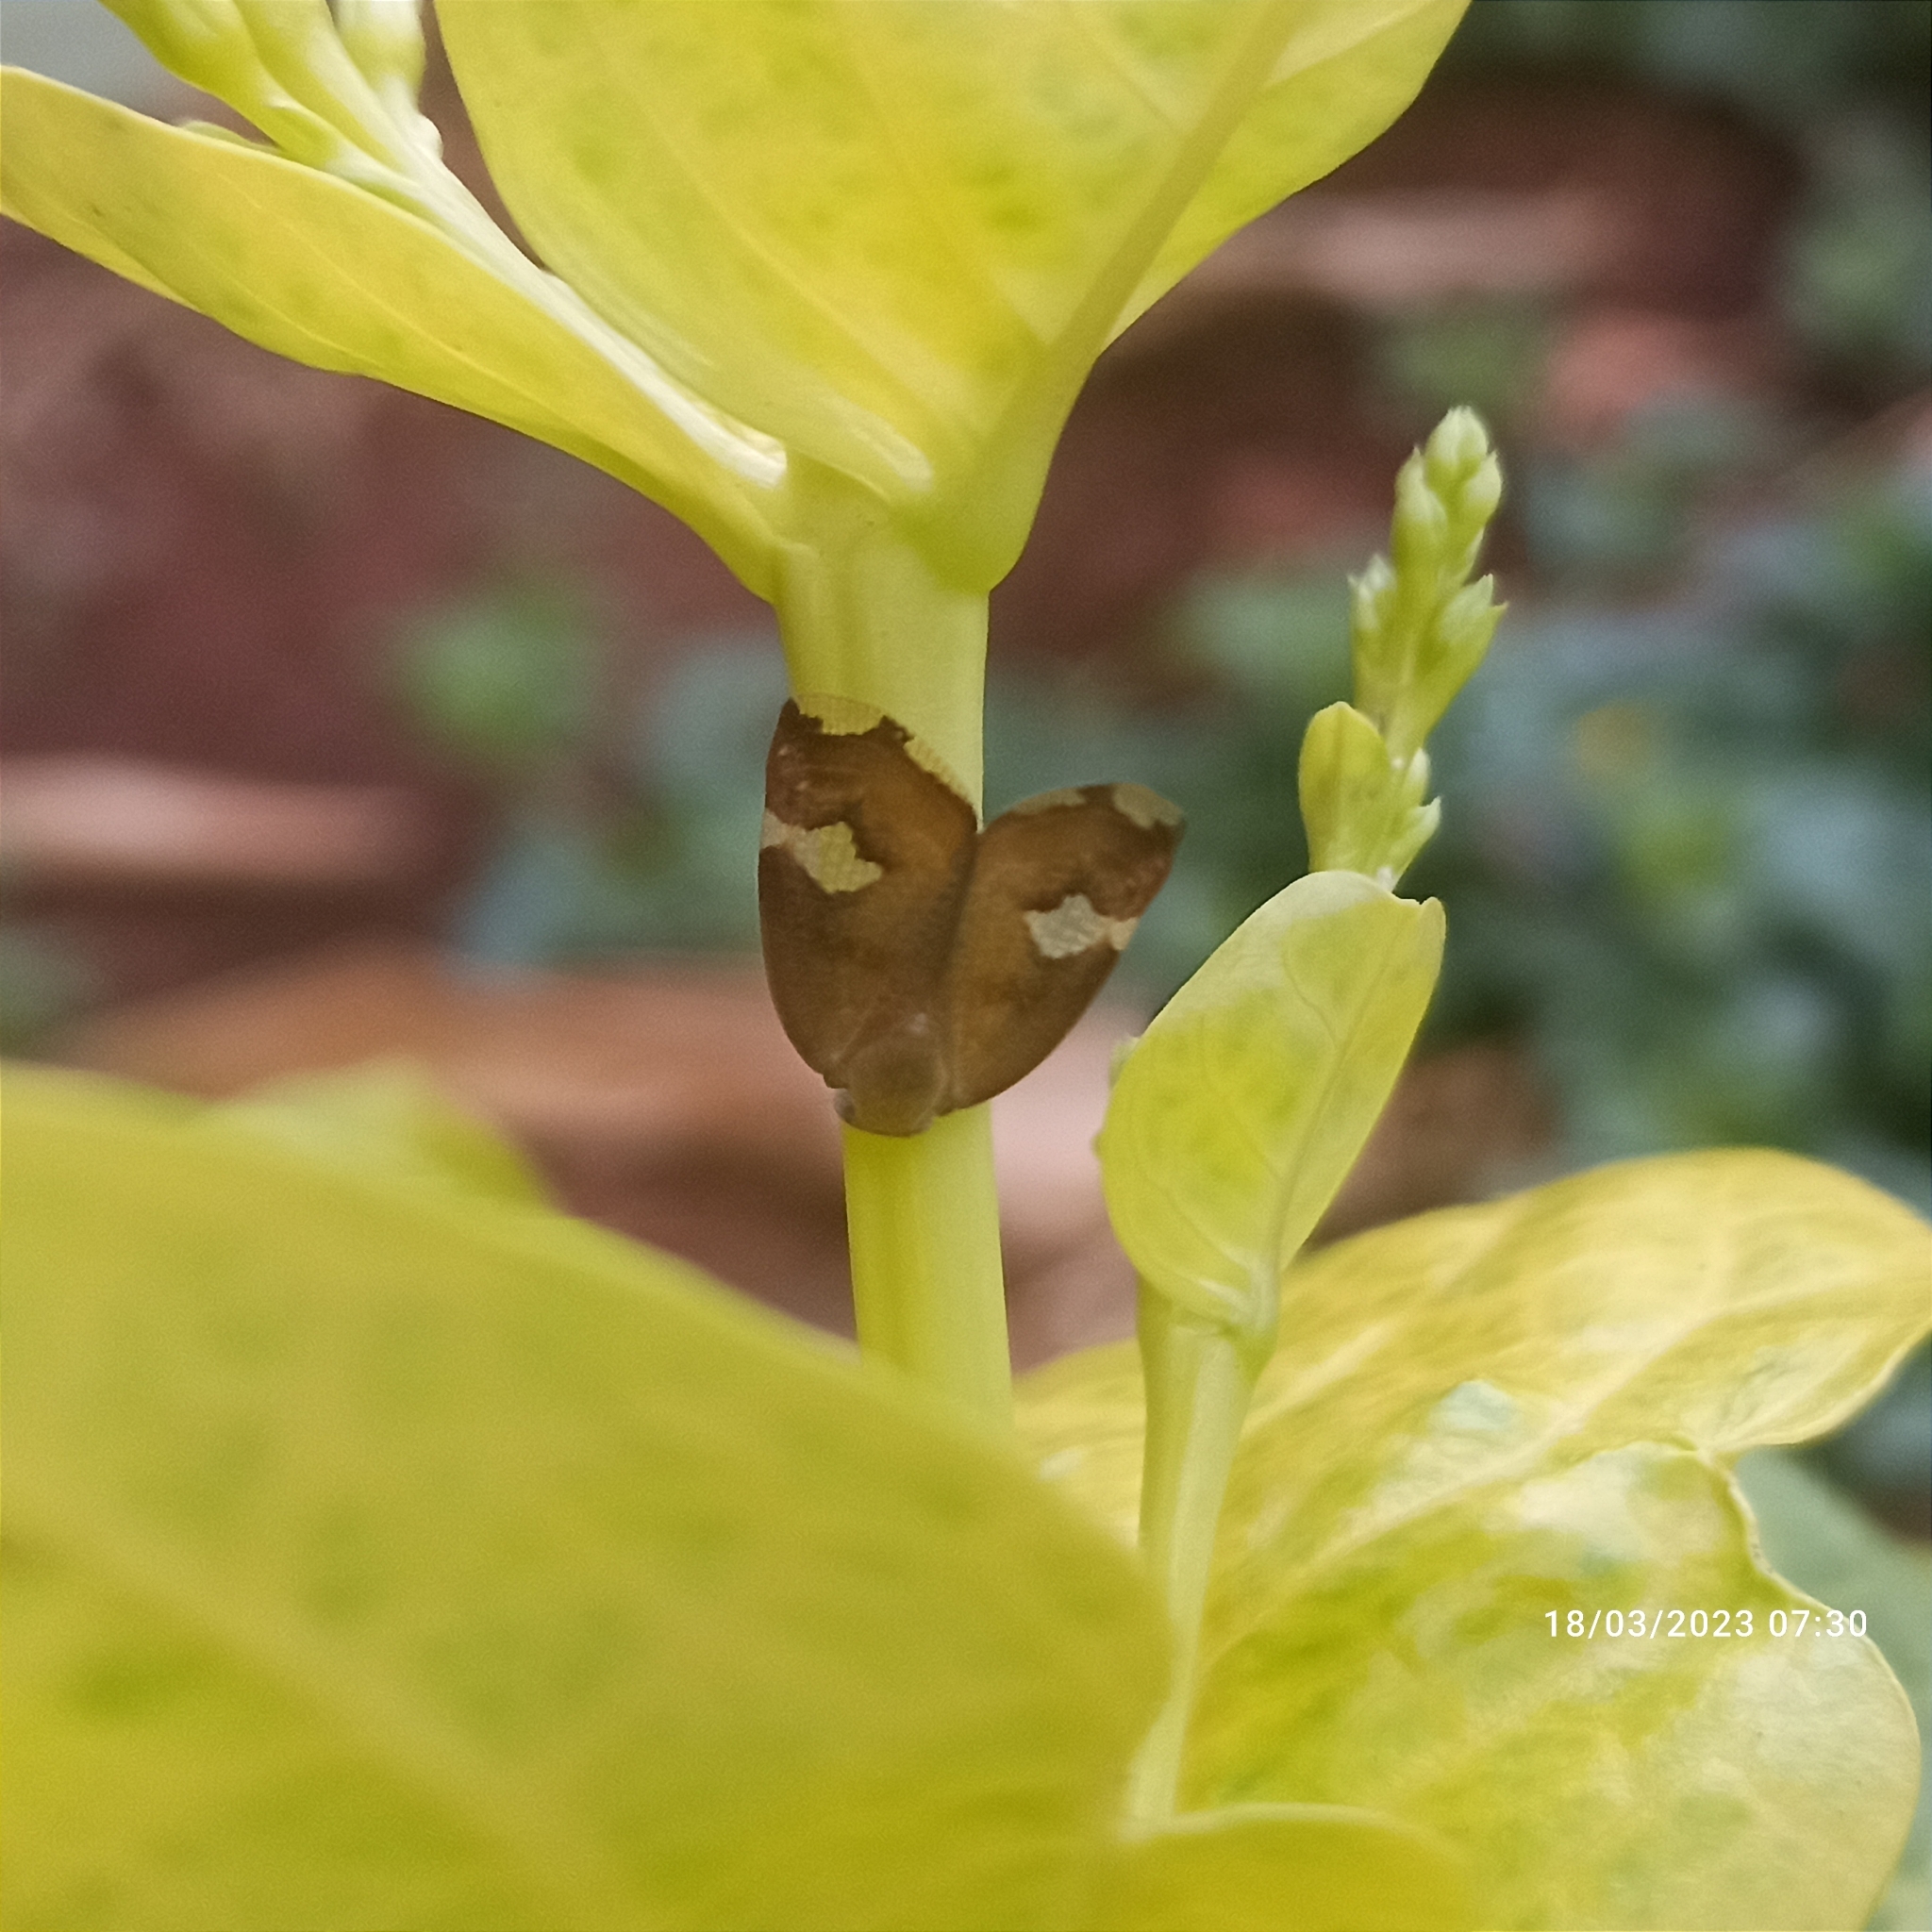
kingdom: Animalia
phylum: Arthropoda
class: Insecta
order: Hemiptera
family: Ricaniidae
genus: Ricania
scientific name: Ricania fenestrata
